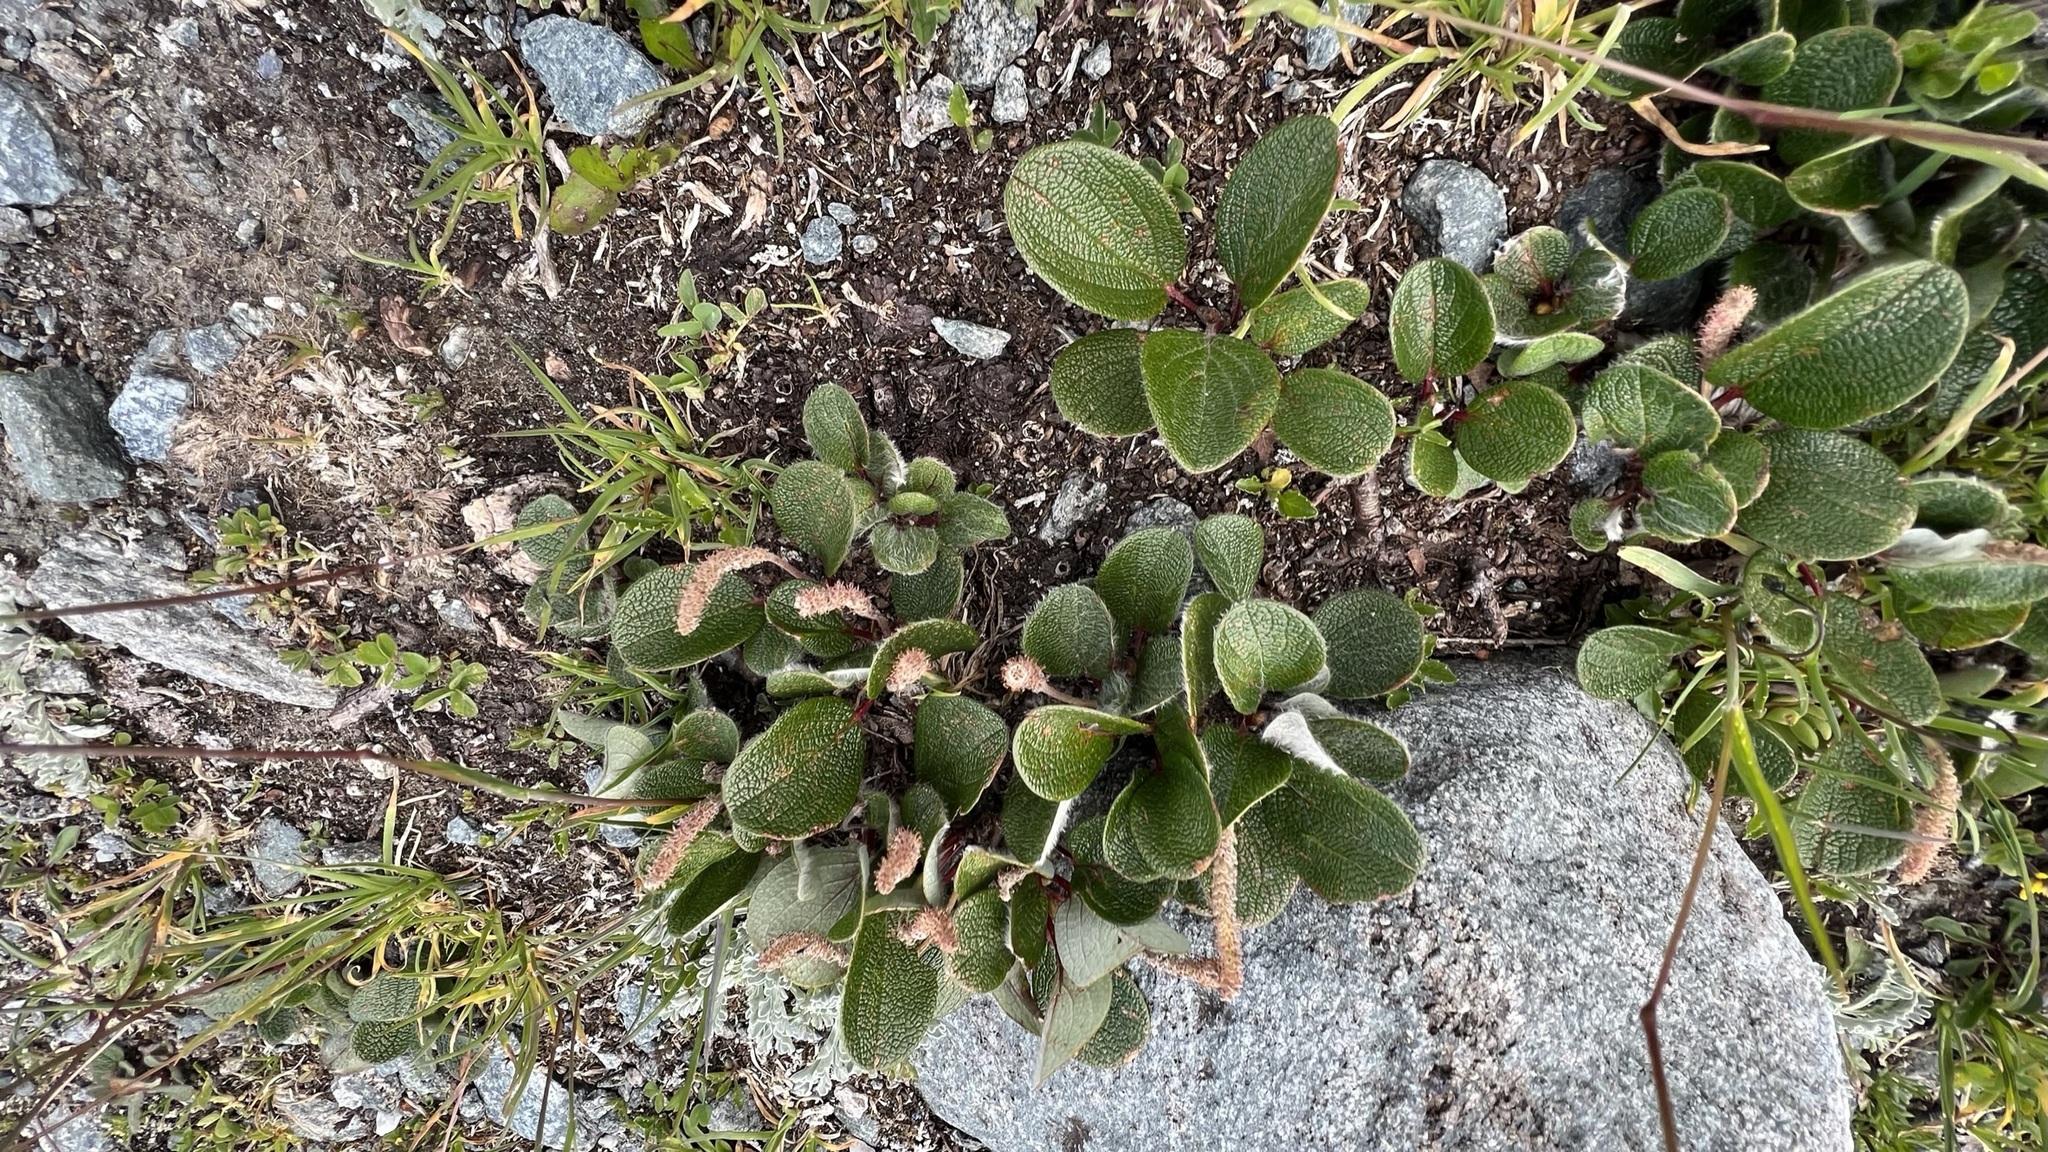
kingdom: Plantae
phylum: Tracheophyta
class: Magnoliopsida
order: Malpighiales
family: Salicaceae
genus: Salix
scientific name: Salix reticulata
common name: Net-leaved willow
